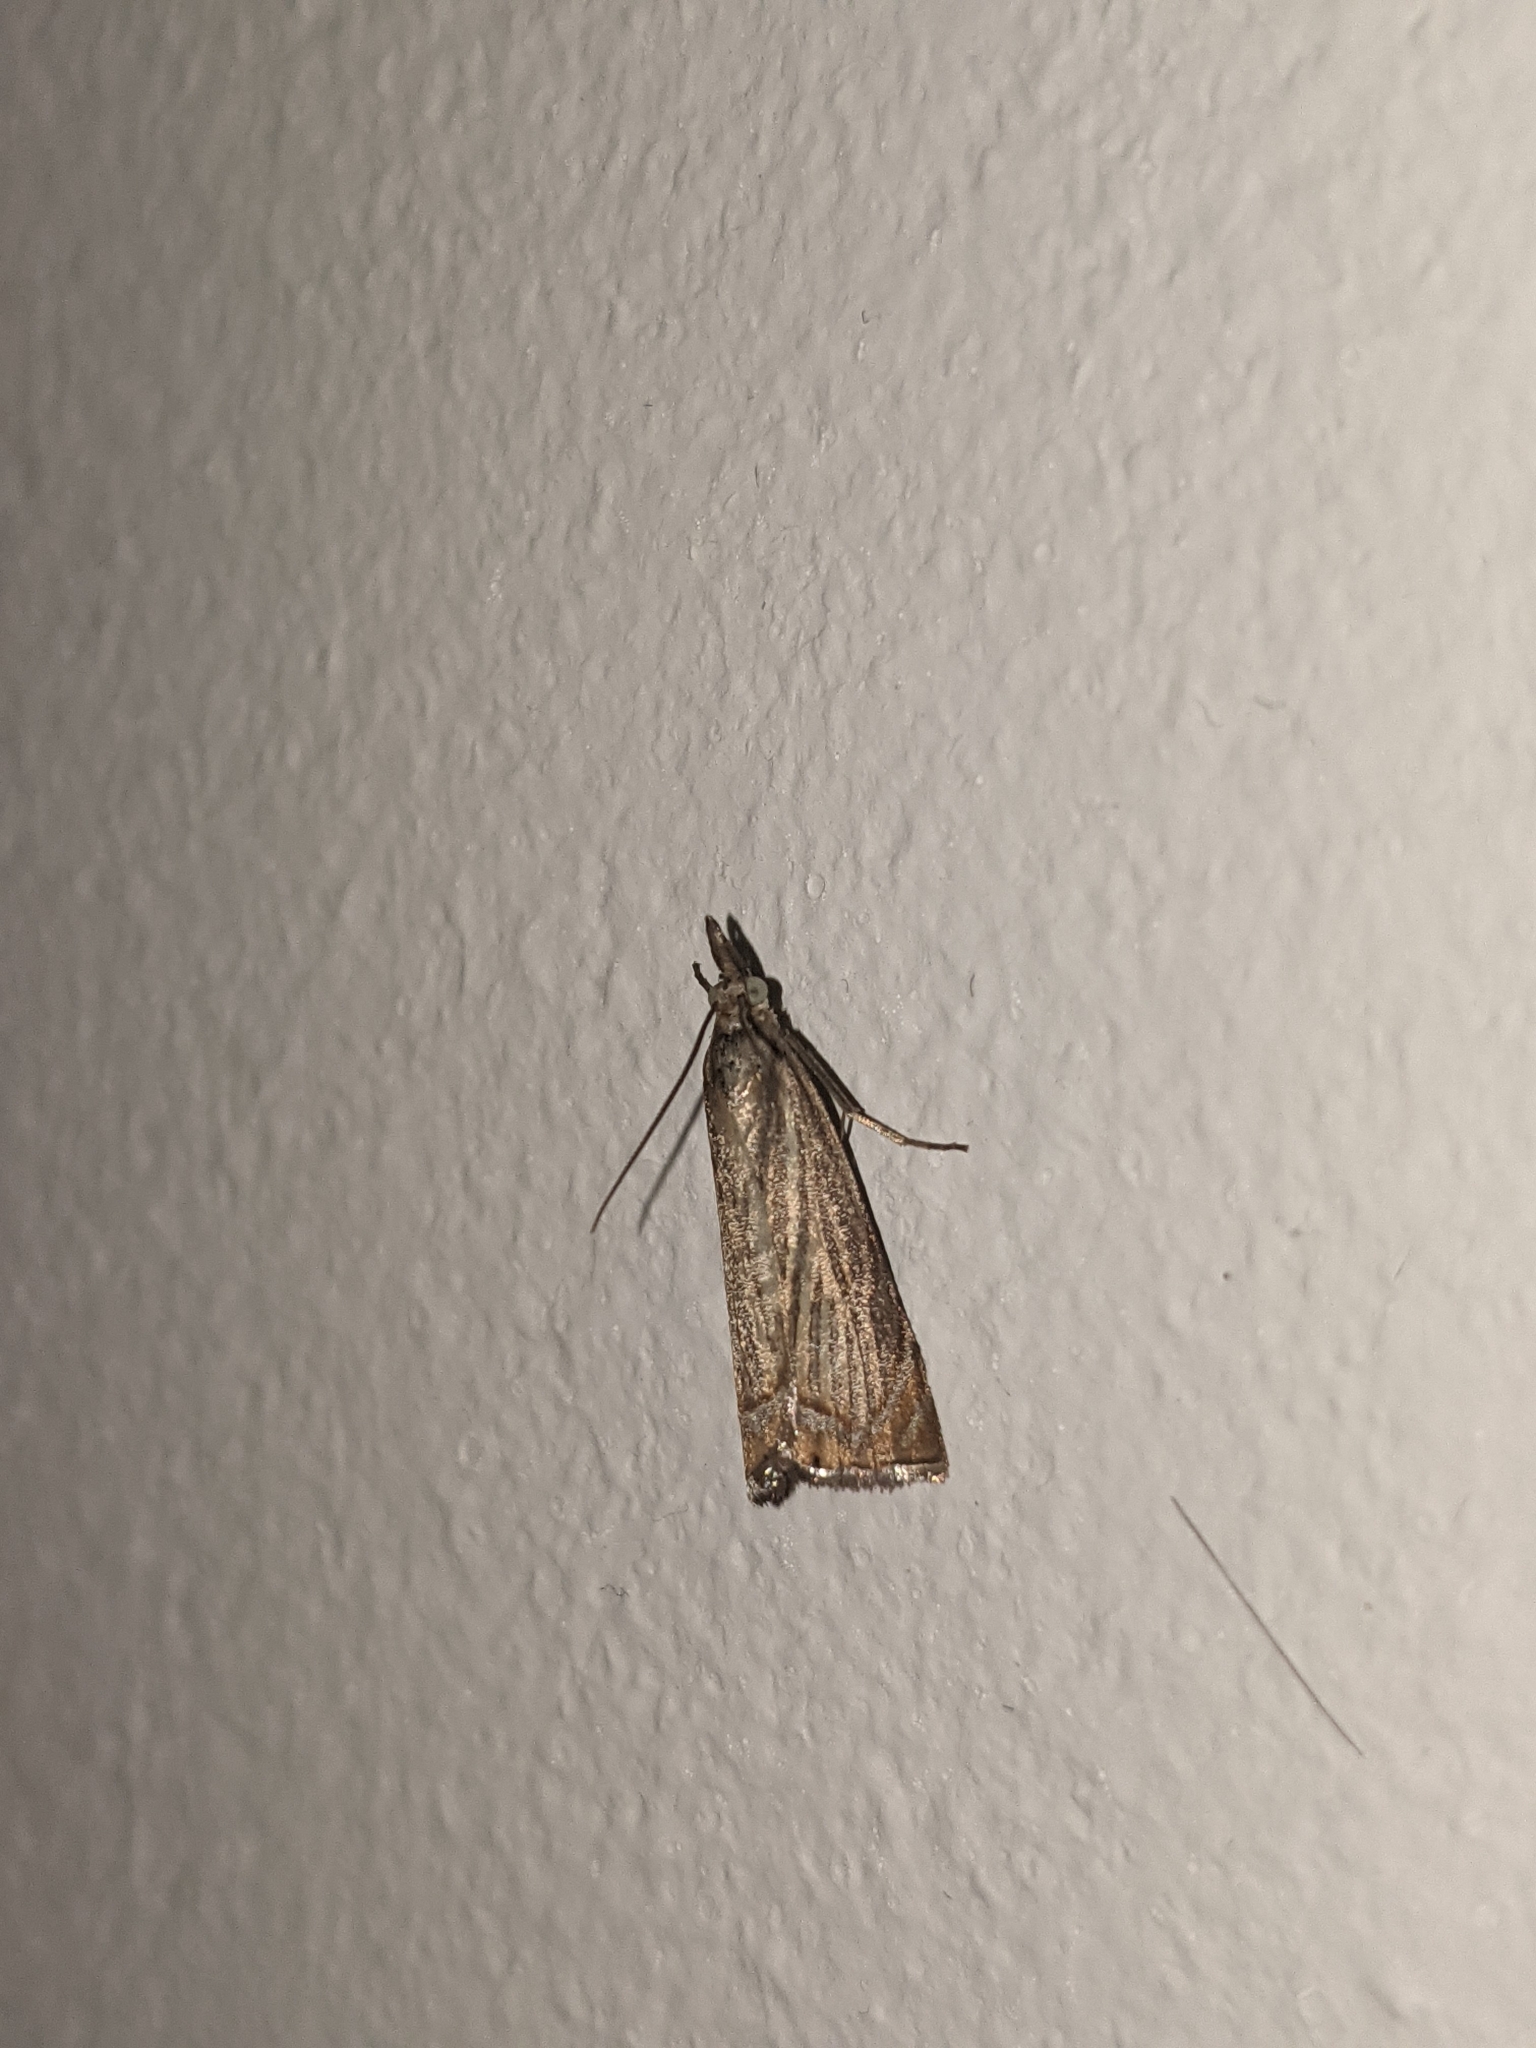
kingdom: Animalia
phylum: Arthropoda
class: Insecta
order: Lepidoptera
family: Crambidae
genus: Chrysoteuchia
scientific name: Chrysoteuchia culmella
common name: Garden grass-veneer
